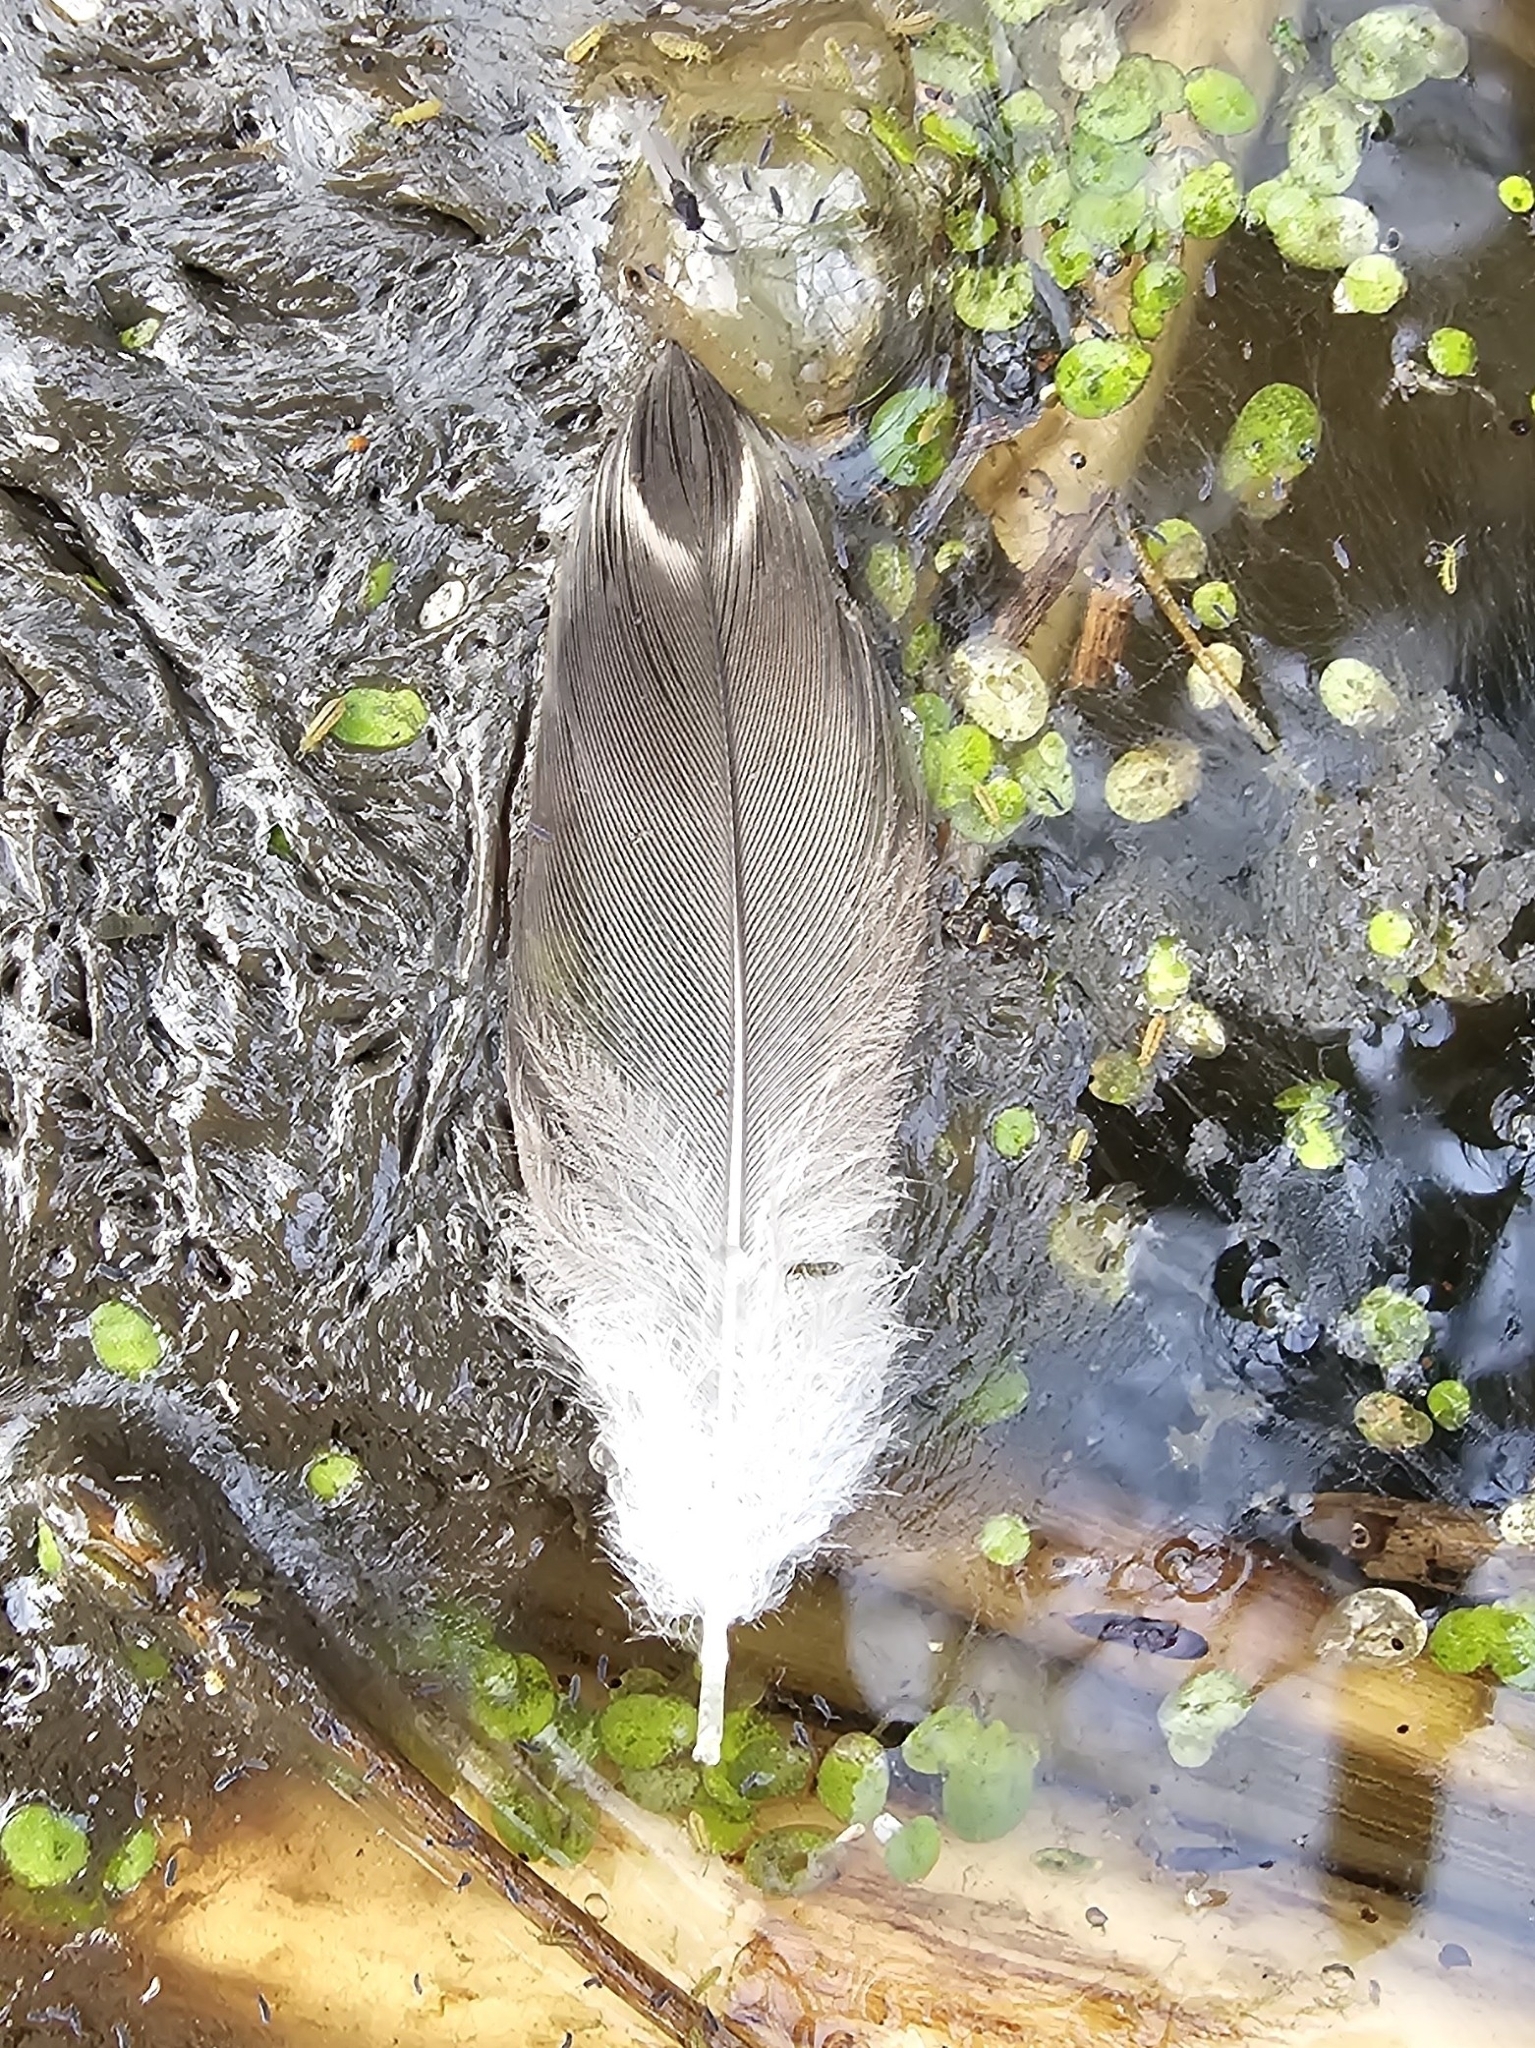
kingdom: Animalia
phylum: Chordata
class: Aves
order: Anseriformes
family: Anatidae
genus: Anas
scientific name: Anas platyrhynchos
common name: Mallard
